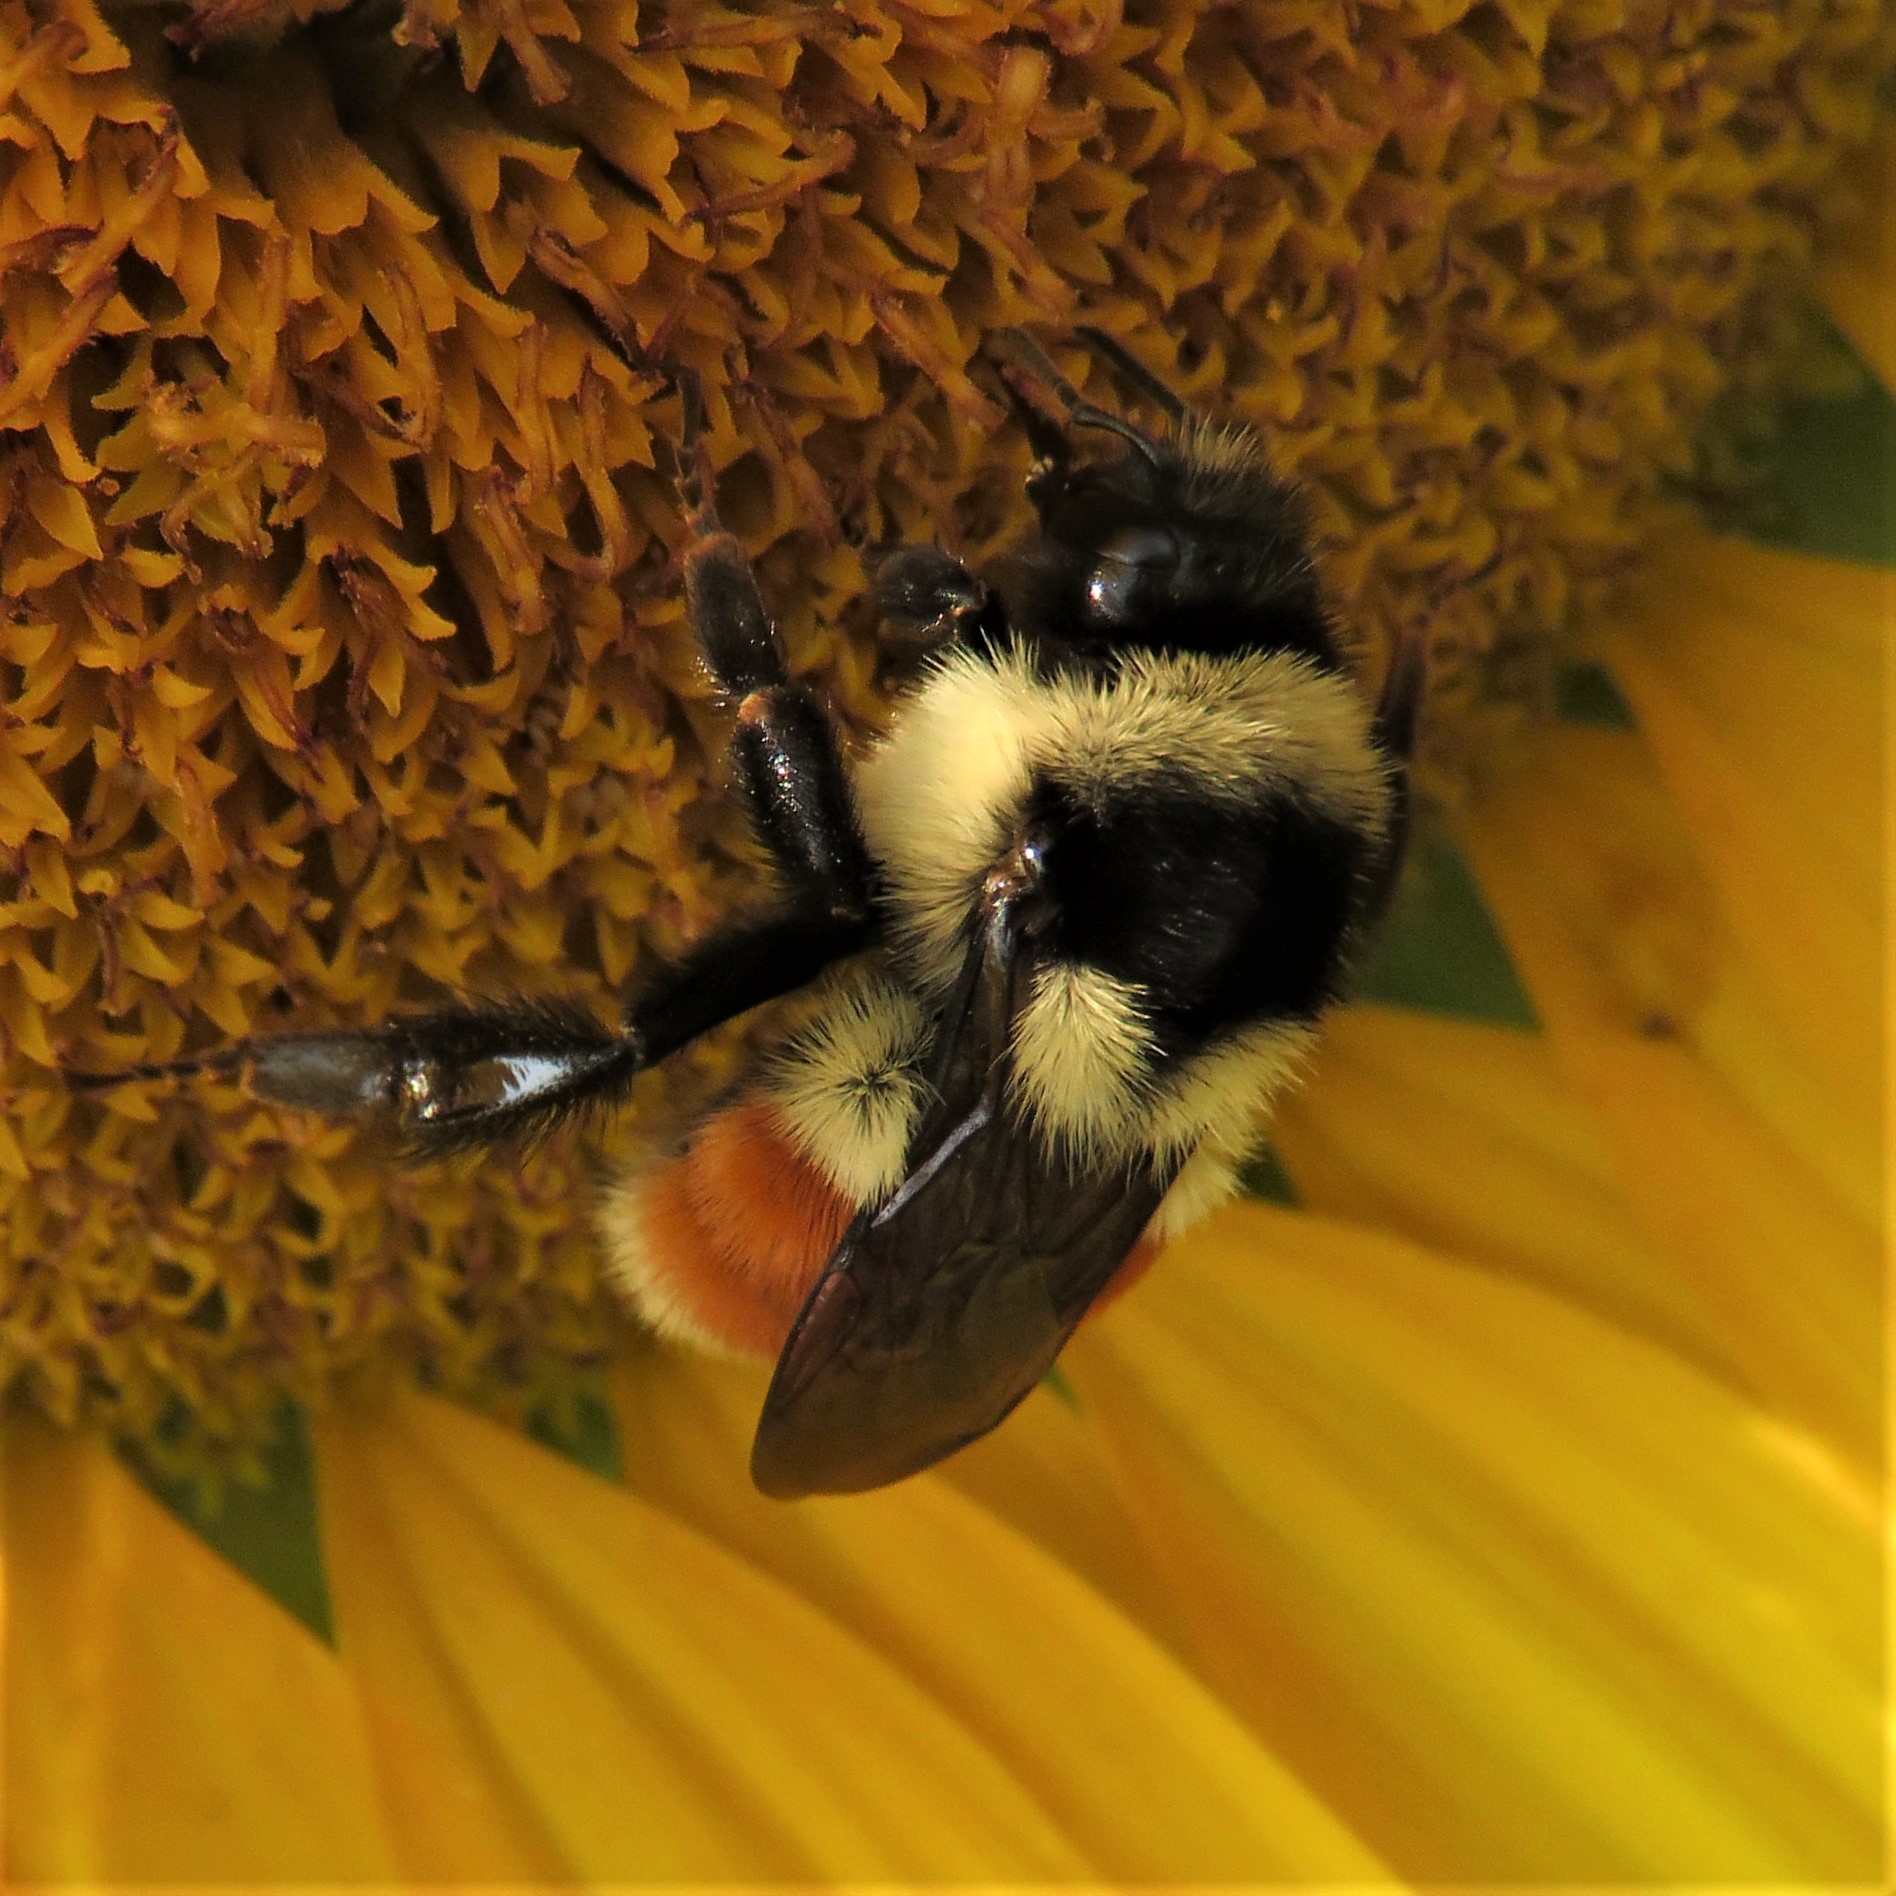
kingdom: Animalia
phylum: Arthropoda
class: Insecta
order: Hymenoptera
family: Apidae
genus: Bombus
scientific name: Bombus ternarius
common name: Tri-colored bumble bee
